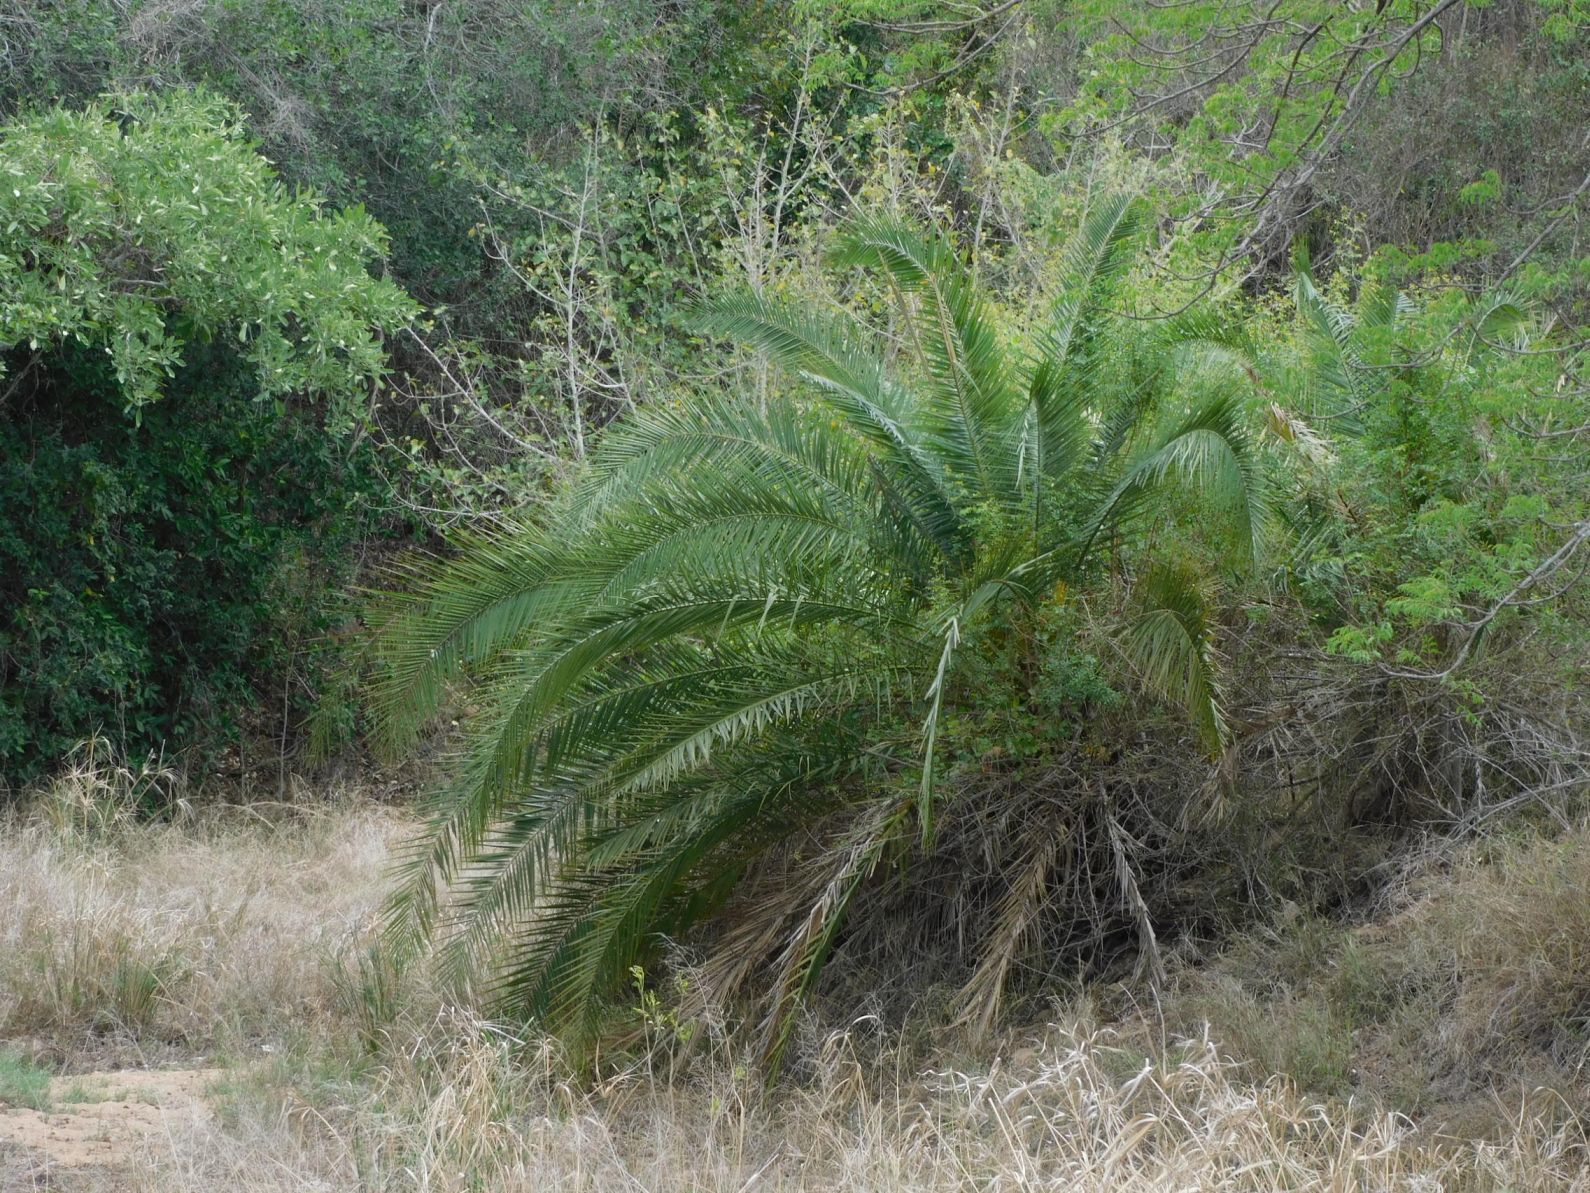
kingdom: Plantae
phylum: Tracheophyta
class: Liliopsida
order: Arecales
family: Arecaceae
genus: Phoenix
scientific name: Phoenix reclinata
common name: Senegal date palm
